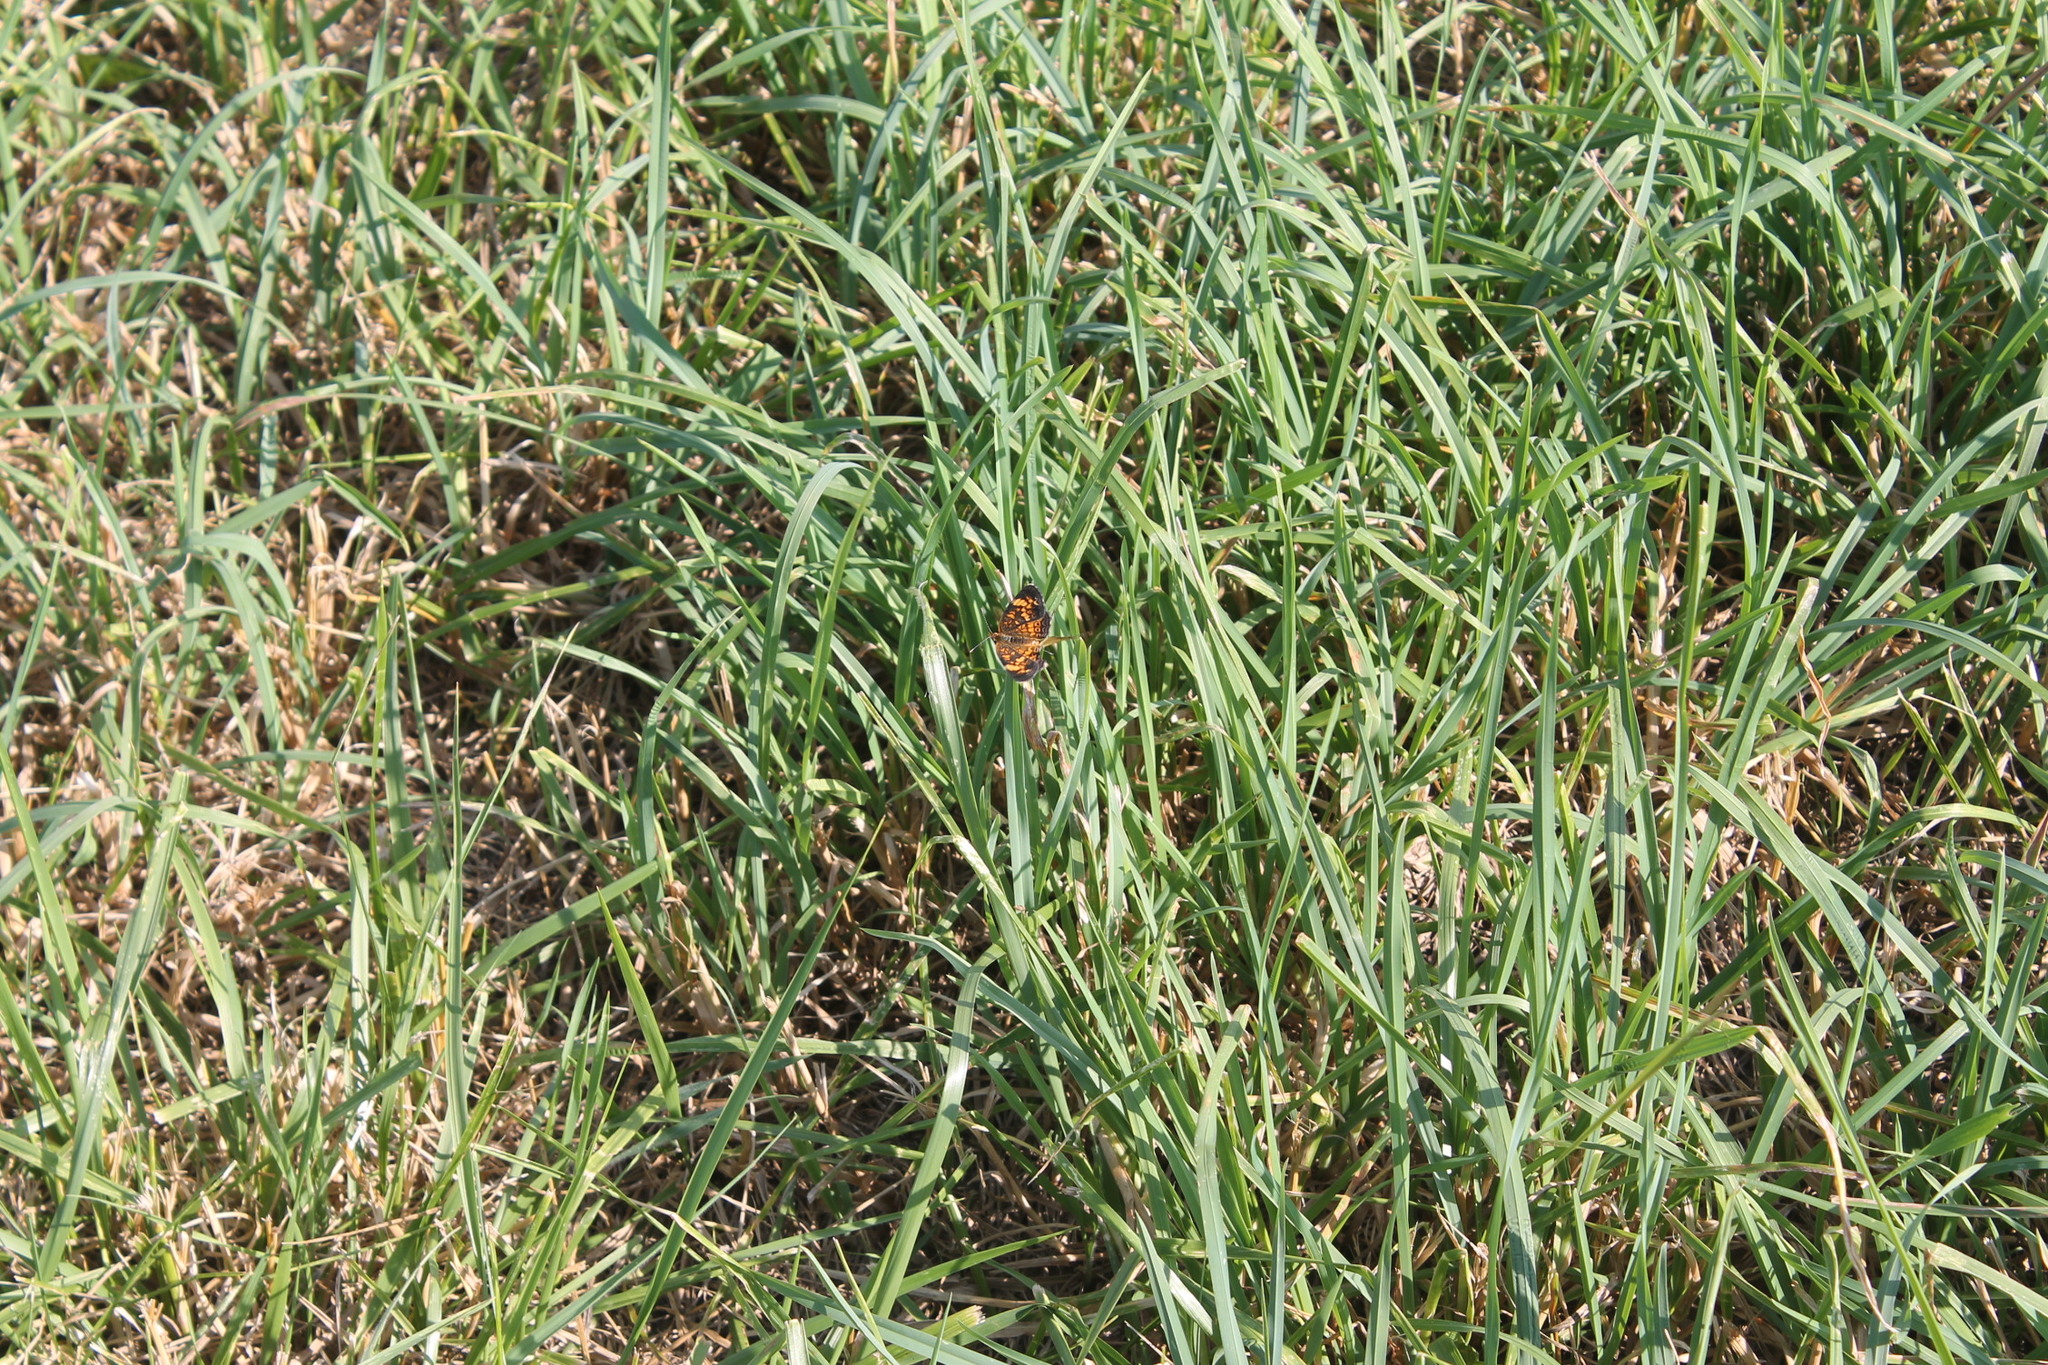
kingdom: Animalia
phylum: Arthropoda
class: Insecta
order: Lepidoptera
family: Nymphalidae
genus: Phyciodes
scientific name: Phyciodes tharos
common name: Pearl crescent
